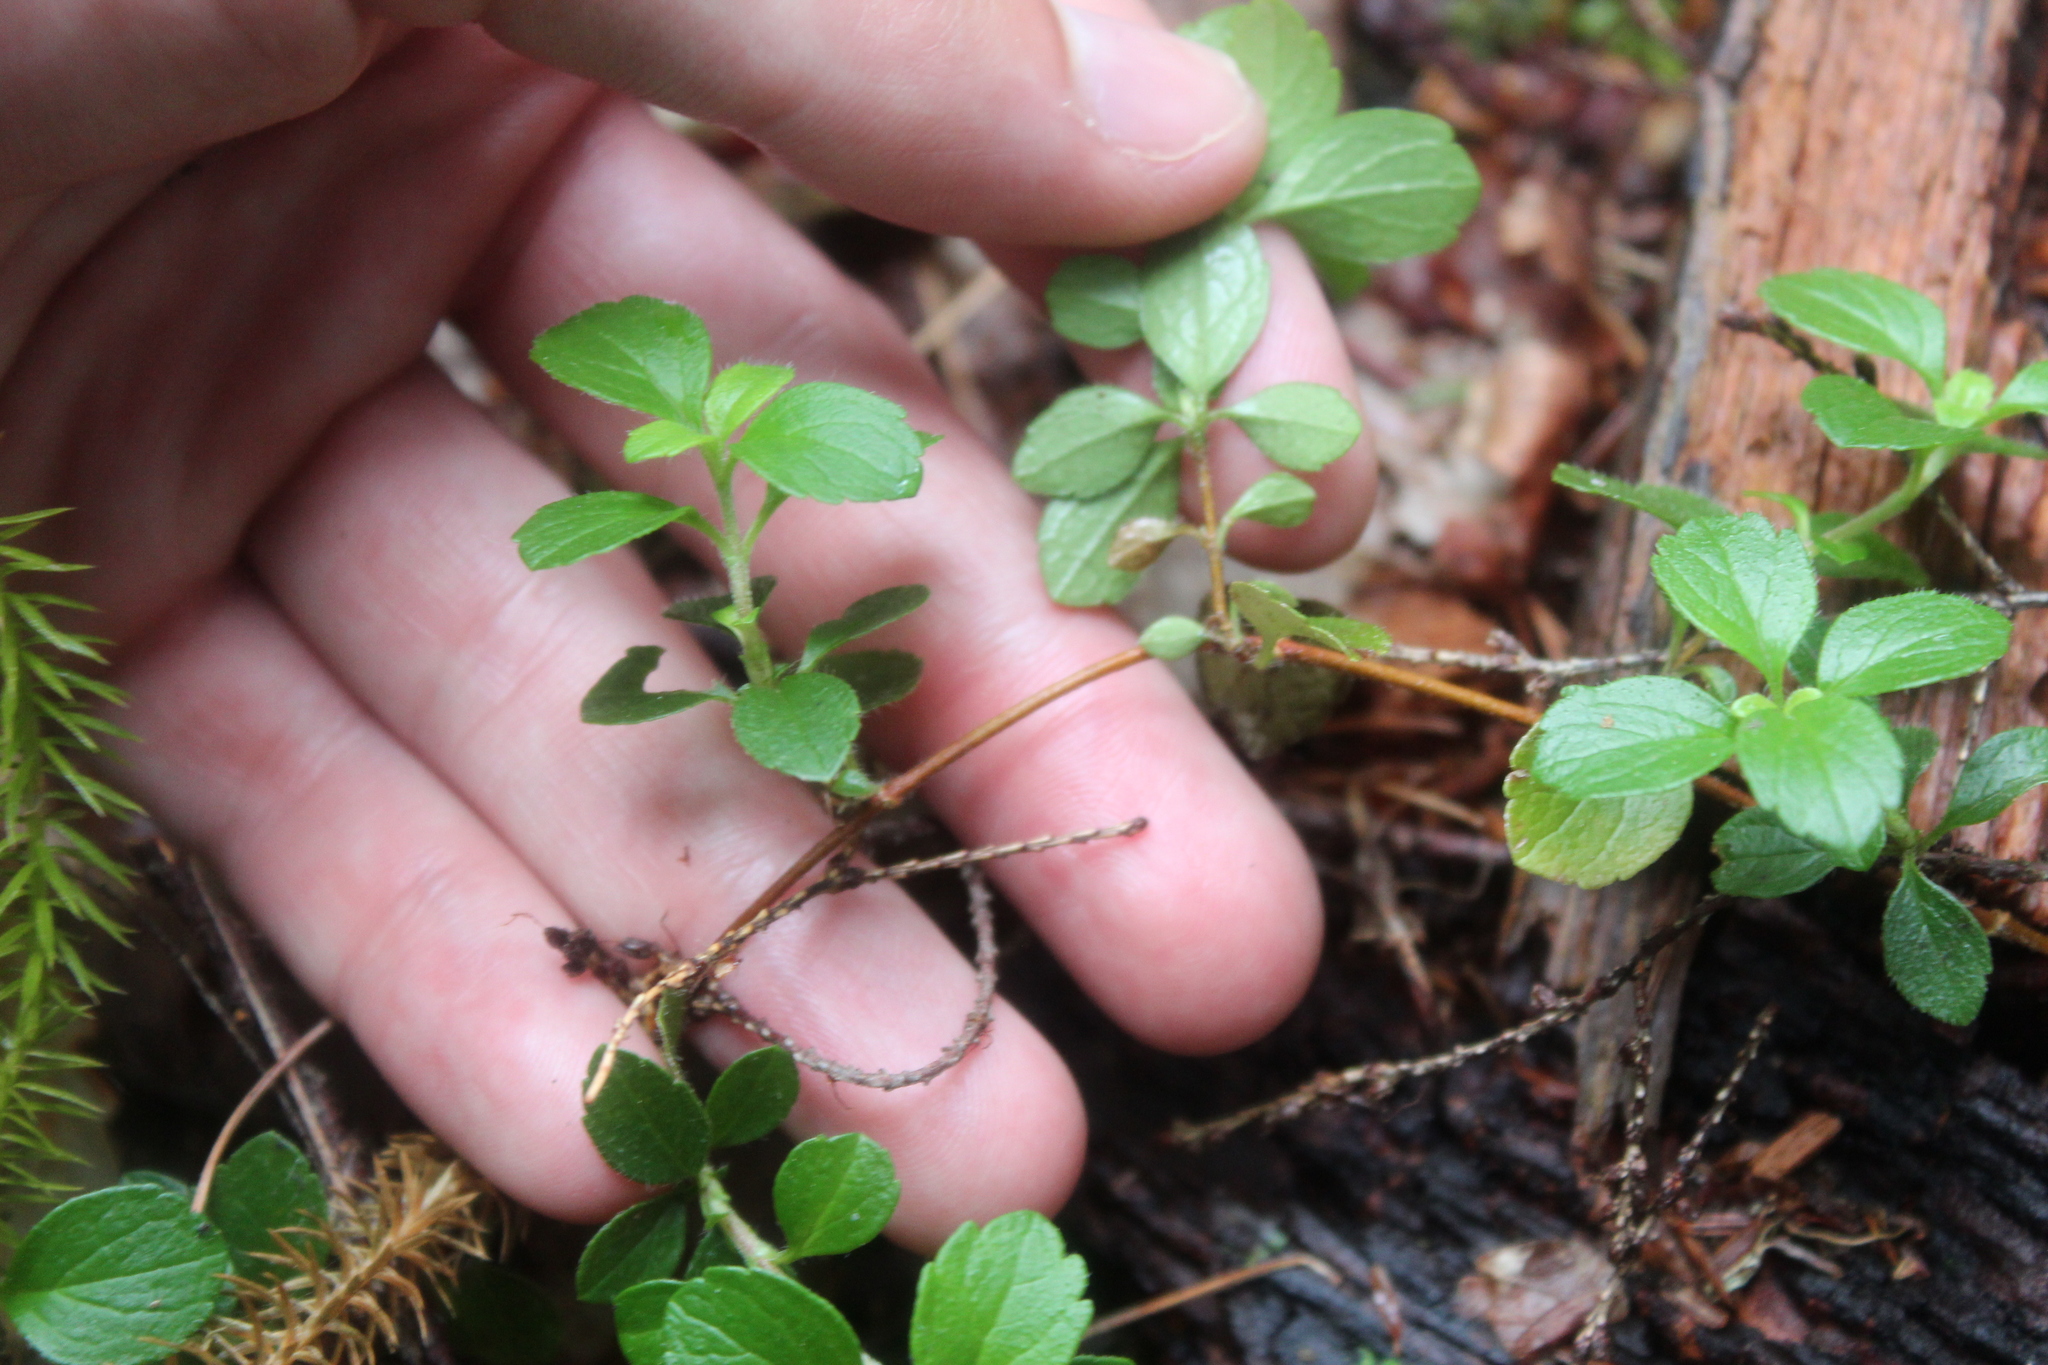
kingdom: Plantae
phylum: Tracheophyta
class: Magnoliopsida
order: Dipsacales
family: Caprifoliaceae
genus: Linnaea
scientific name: Linnaea borealis
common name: Twinflower
